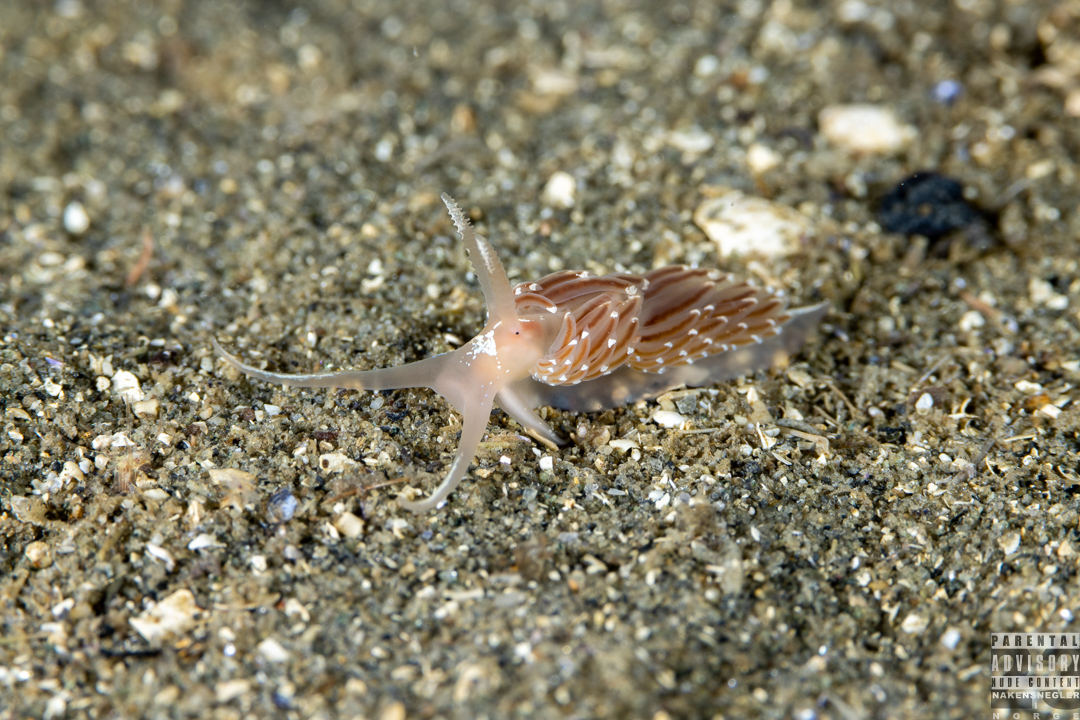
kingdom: Animalia
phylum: Mollusca
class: Gastropoda
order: Nudibranchia
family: Facelinidae
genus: Facelina
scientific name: Facelina bostoniensis
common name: Boston facelina
